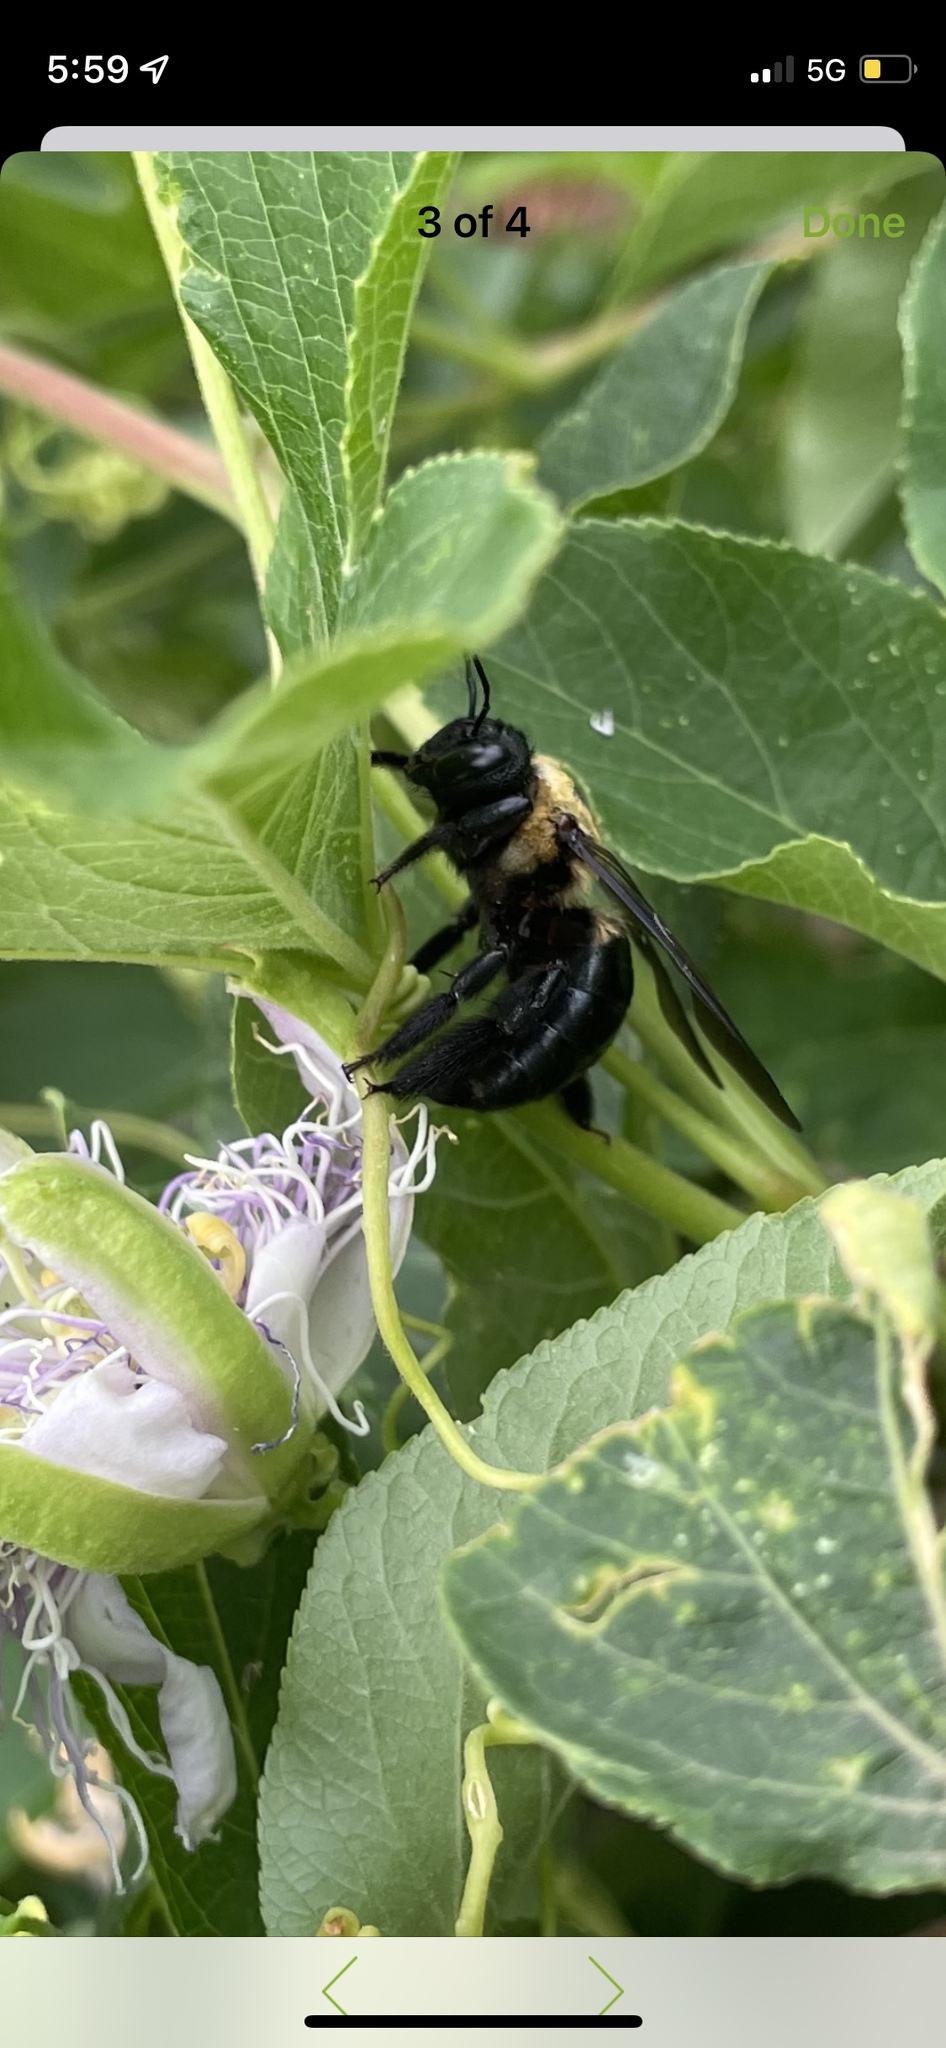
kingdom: Animalia
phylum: Arthropoda
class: Insecta
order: Hymenoptera
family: Apidae
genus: Xylocopa
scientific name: Xylocopa virginica
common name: Carpenter bee
